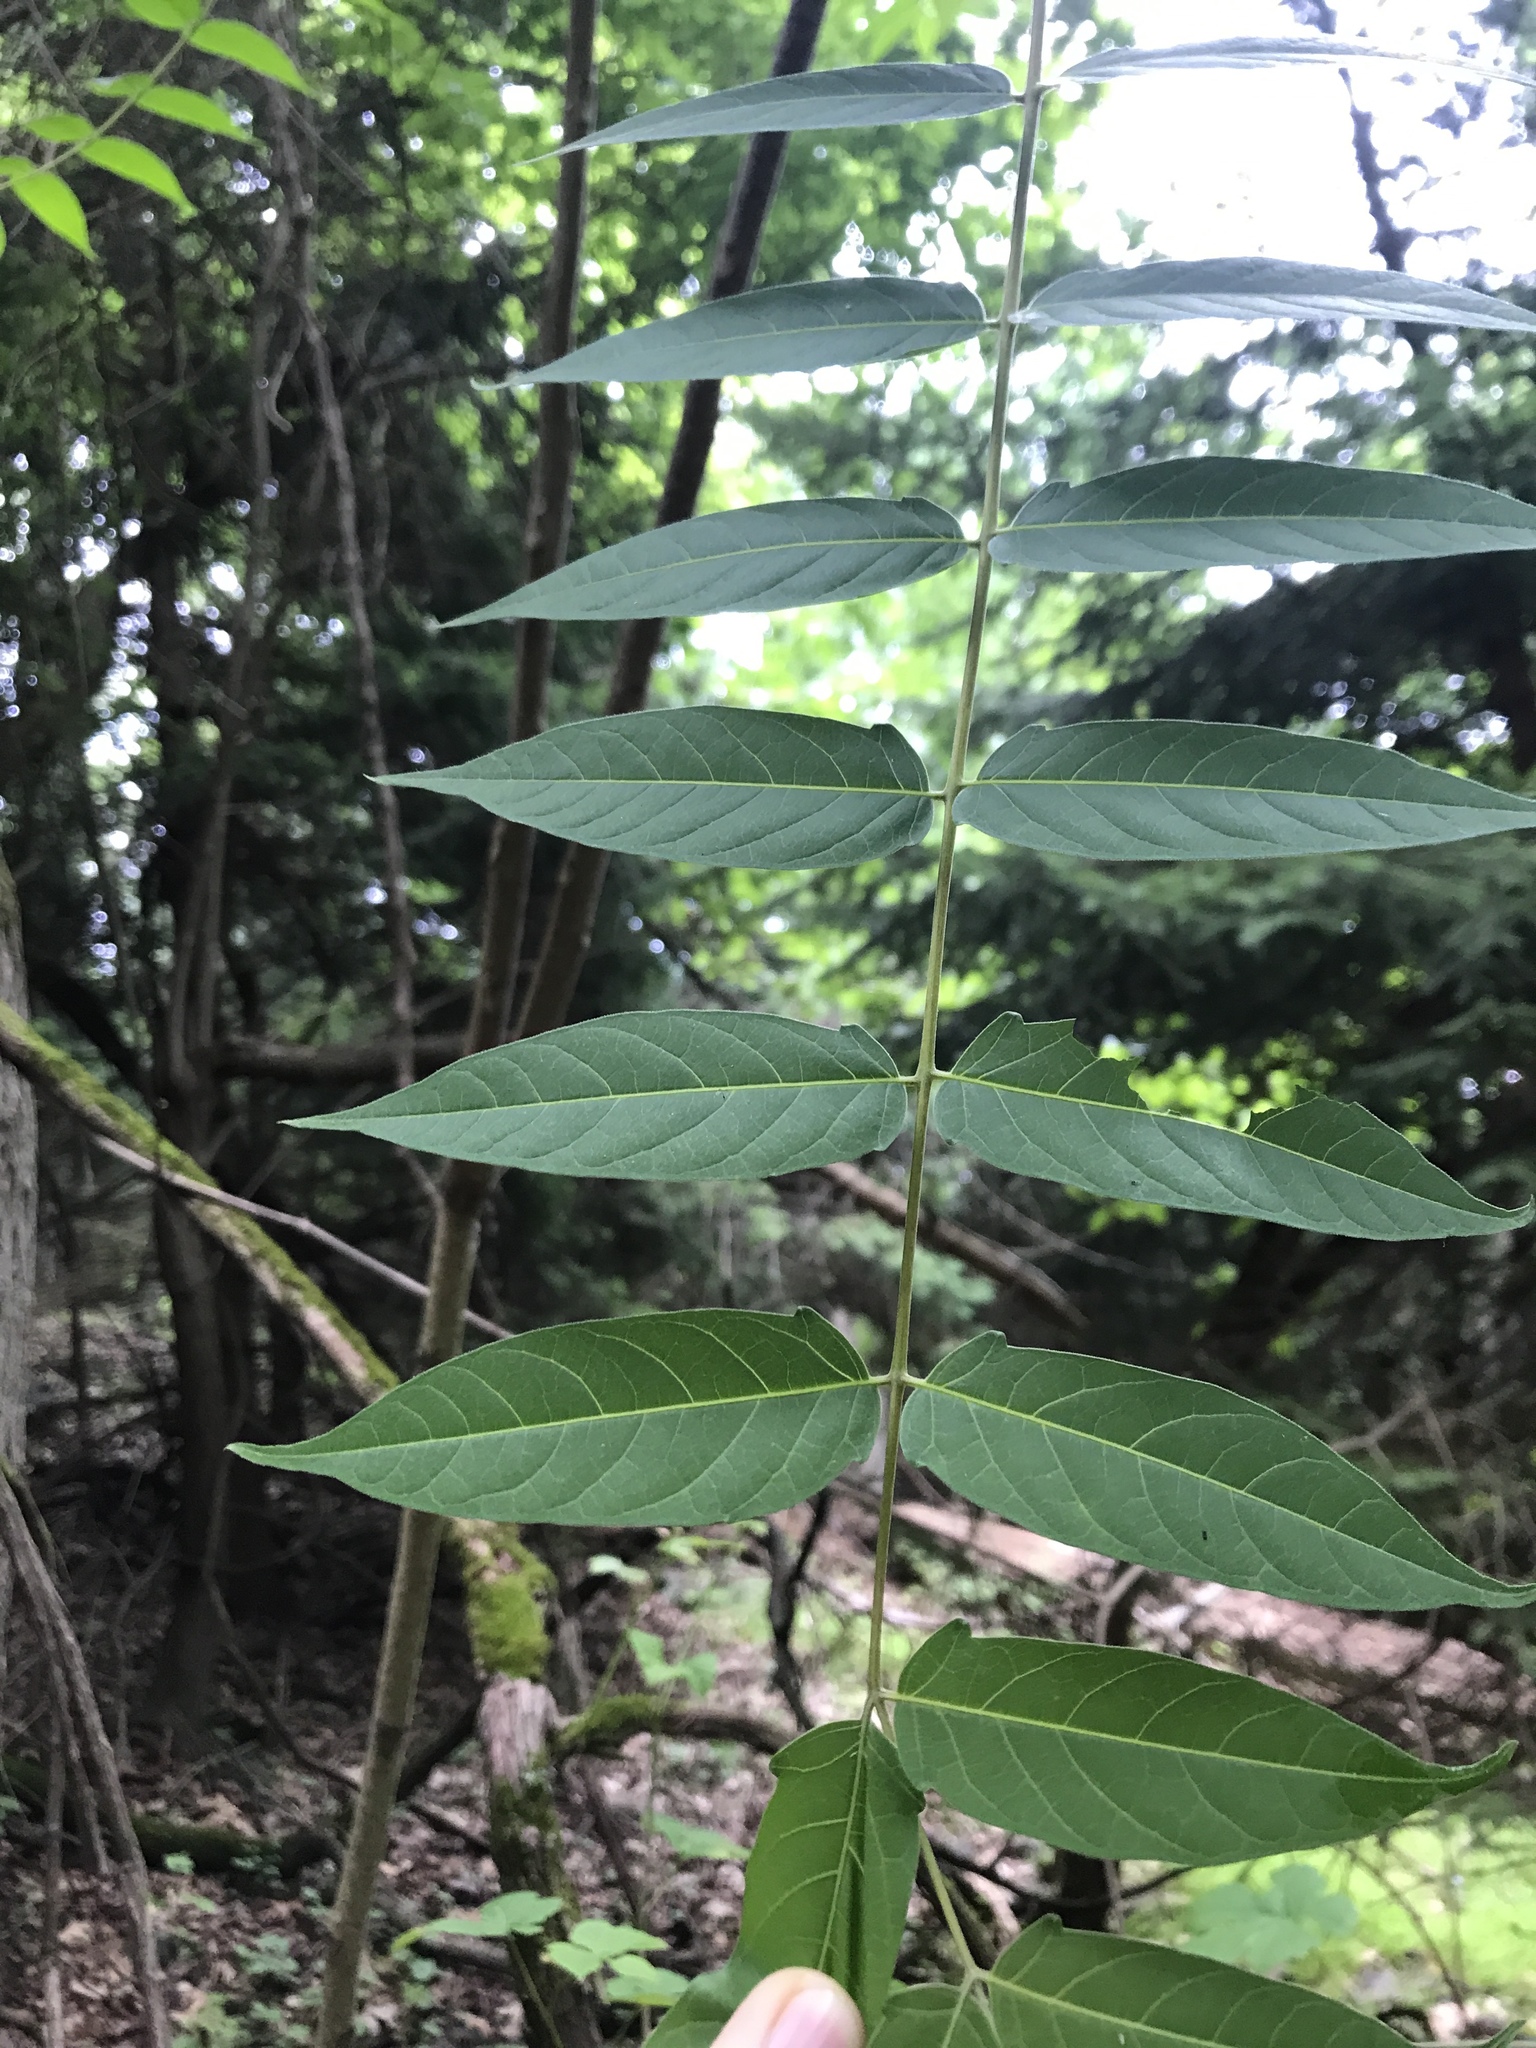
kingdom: Plantae
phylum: Tracheophyta
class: Magnoliopsida
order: Sapindales
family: Simaroubaceae
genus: Ailanthus
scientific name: Ailanthus altissima
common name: Tree-of-heaven
